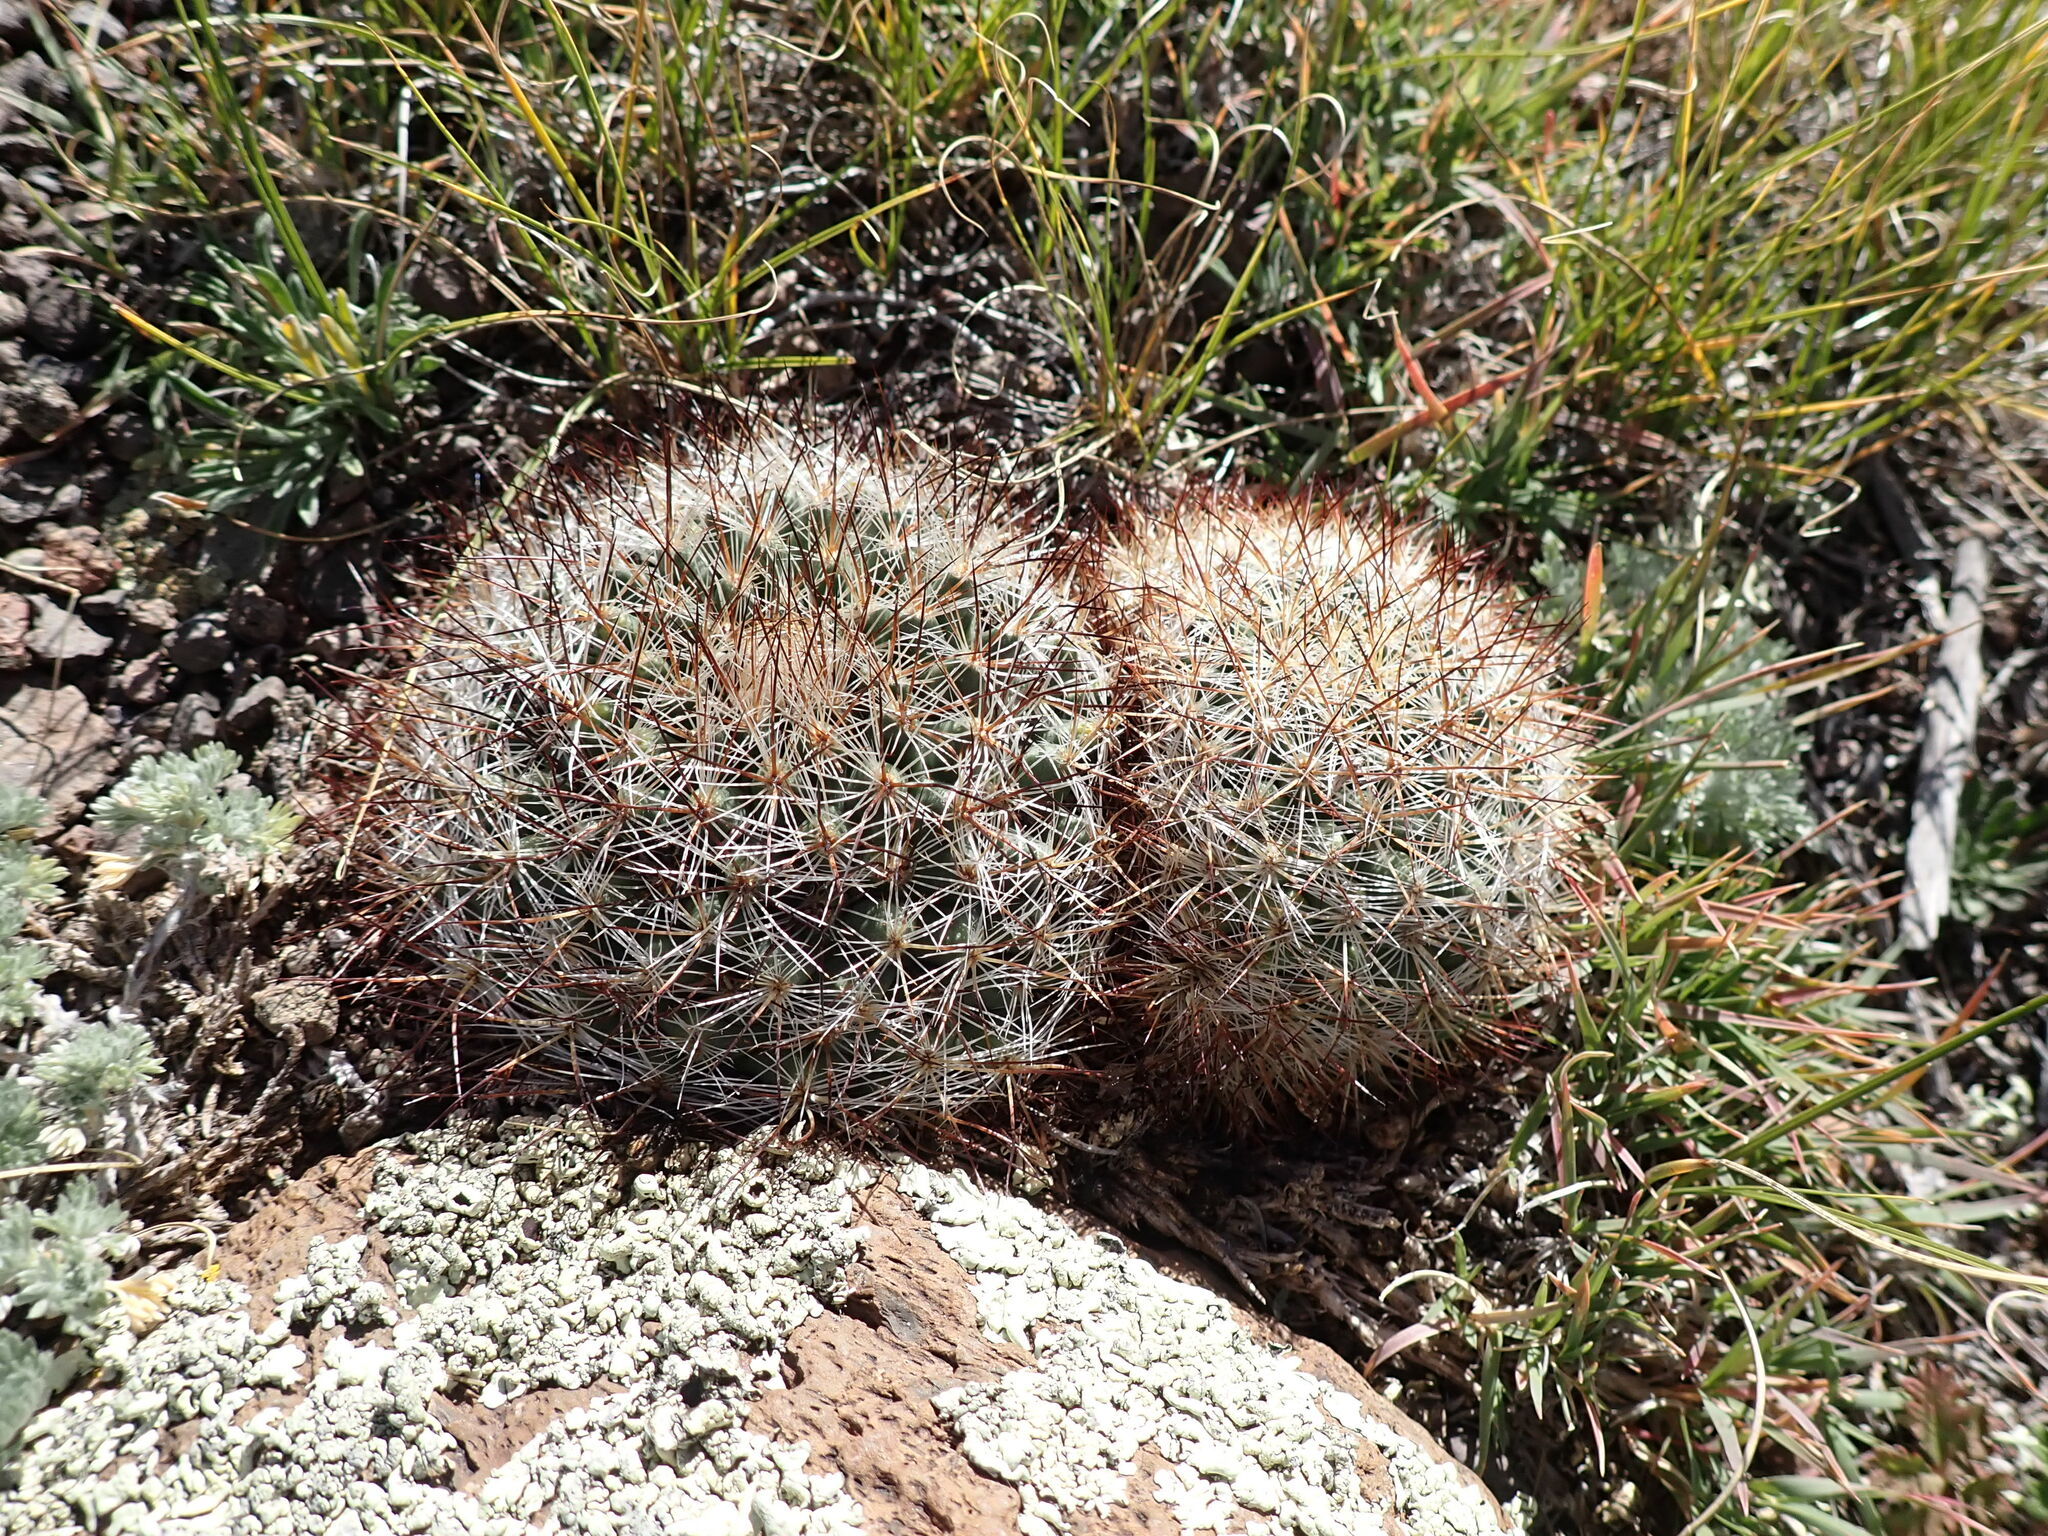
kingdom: Plantae
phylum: Tracheophyta
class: Magnoliopsida
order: Caryophyllales
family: Cactaceae
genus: Pediocactus
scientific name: Pediocactus simpsonii
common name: Simpson's hedgehog cactus
